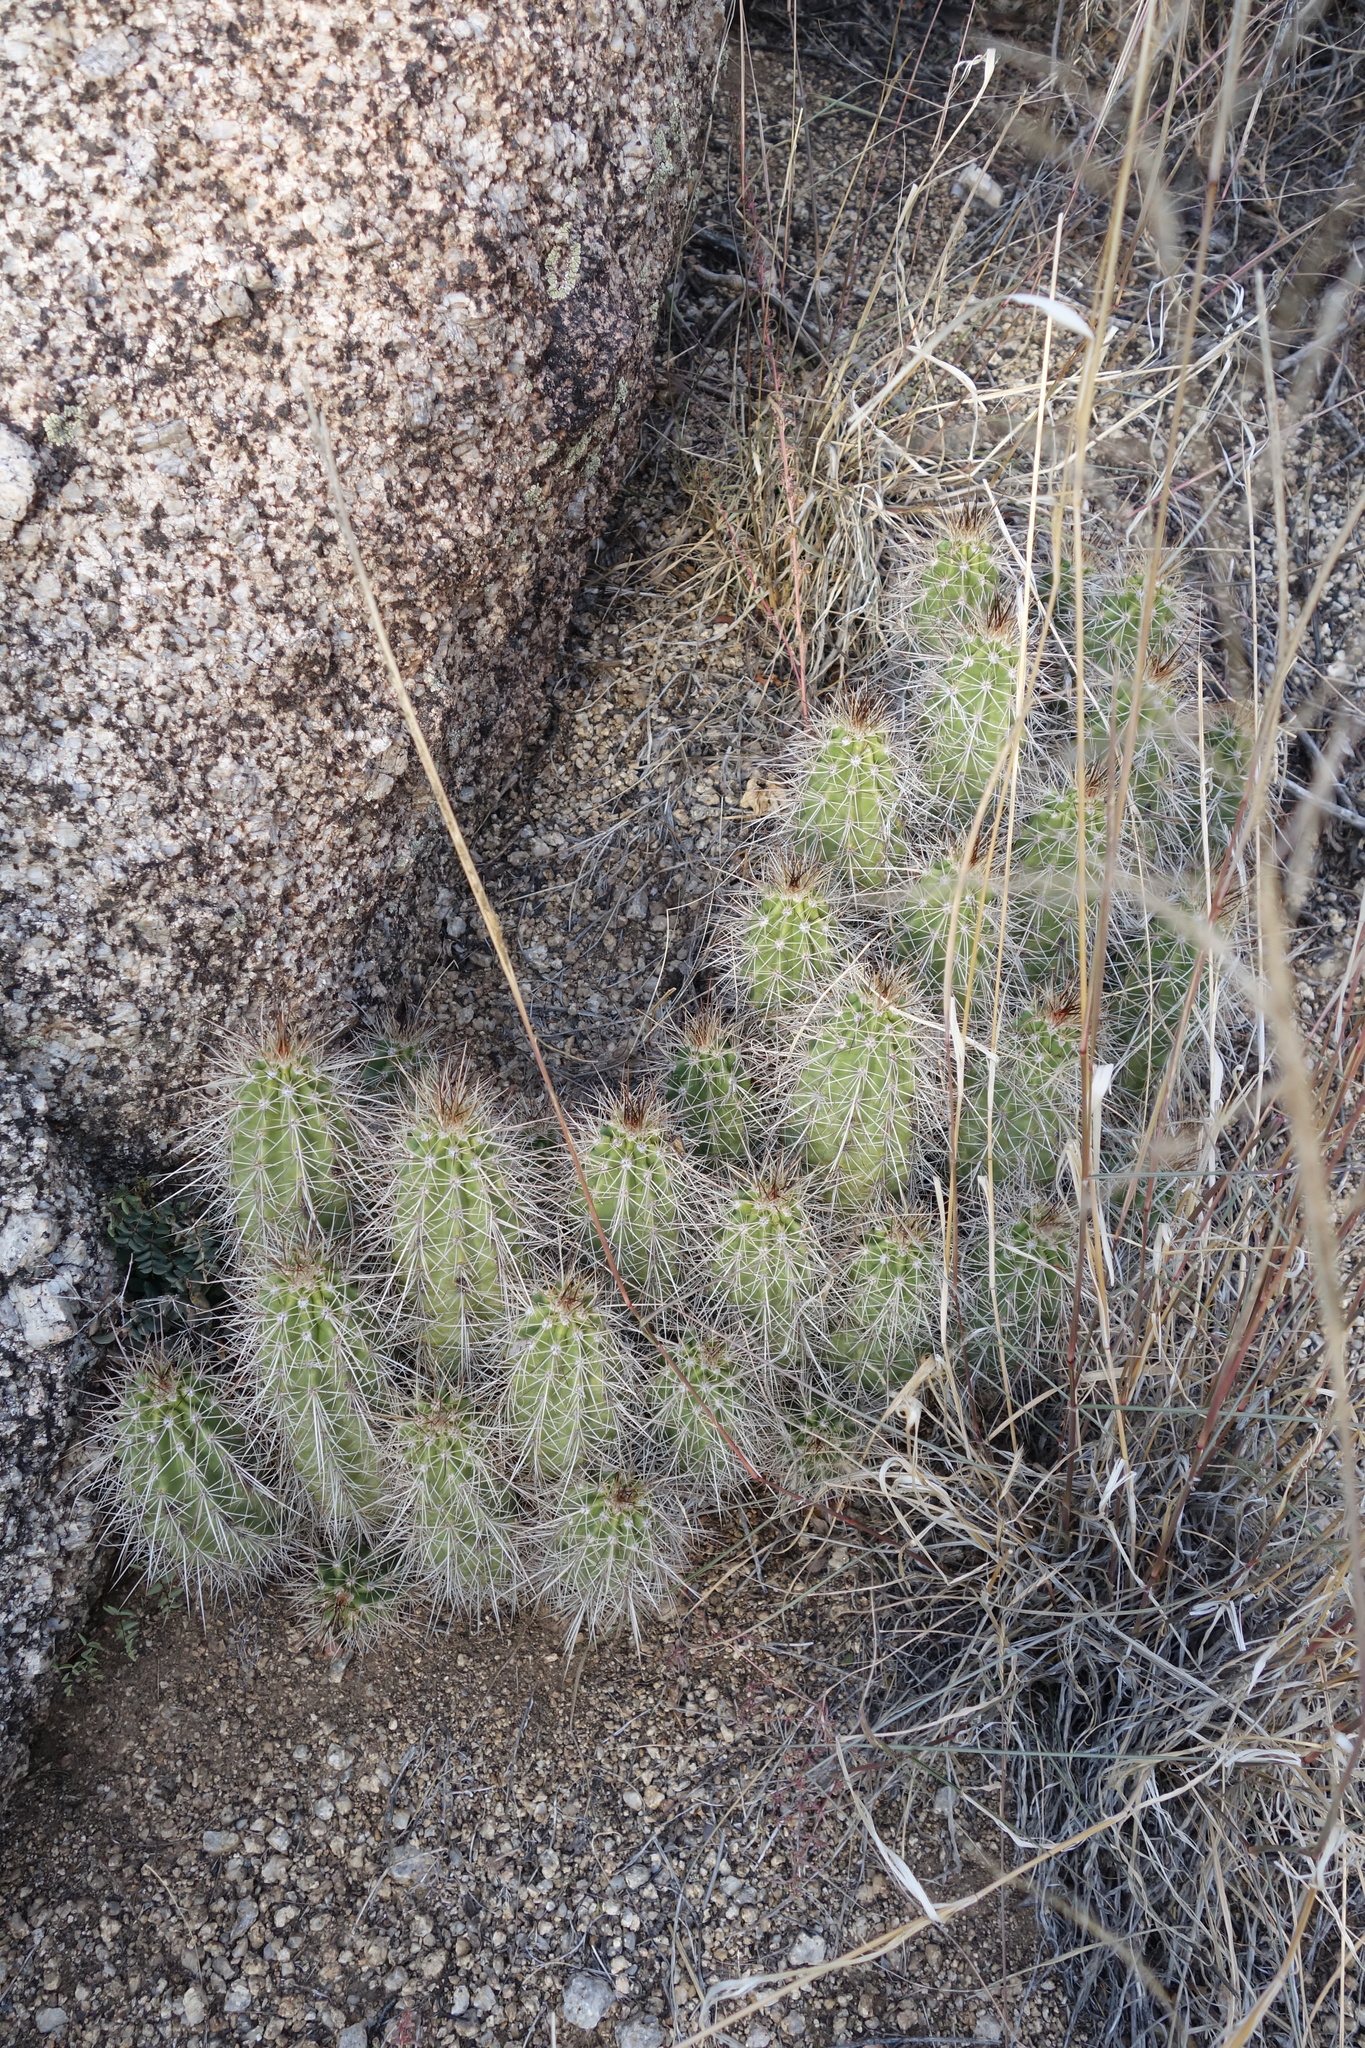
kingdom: Plantae
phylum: Tracheophyta
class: Magnoliopsida
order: Caryophyllales
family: Cactaceae
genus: Echinocereus
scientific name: Echinocereus coccineus
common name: Scarlet hedgehog cactus
